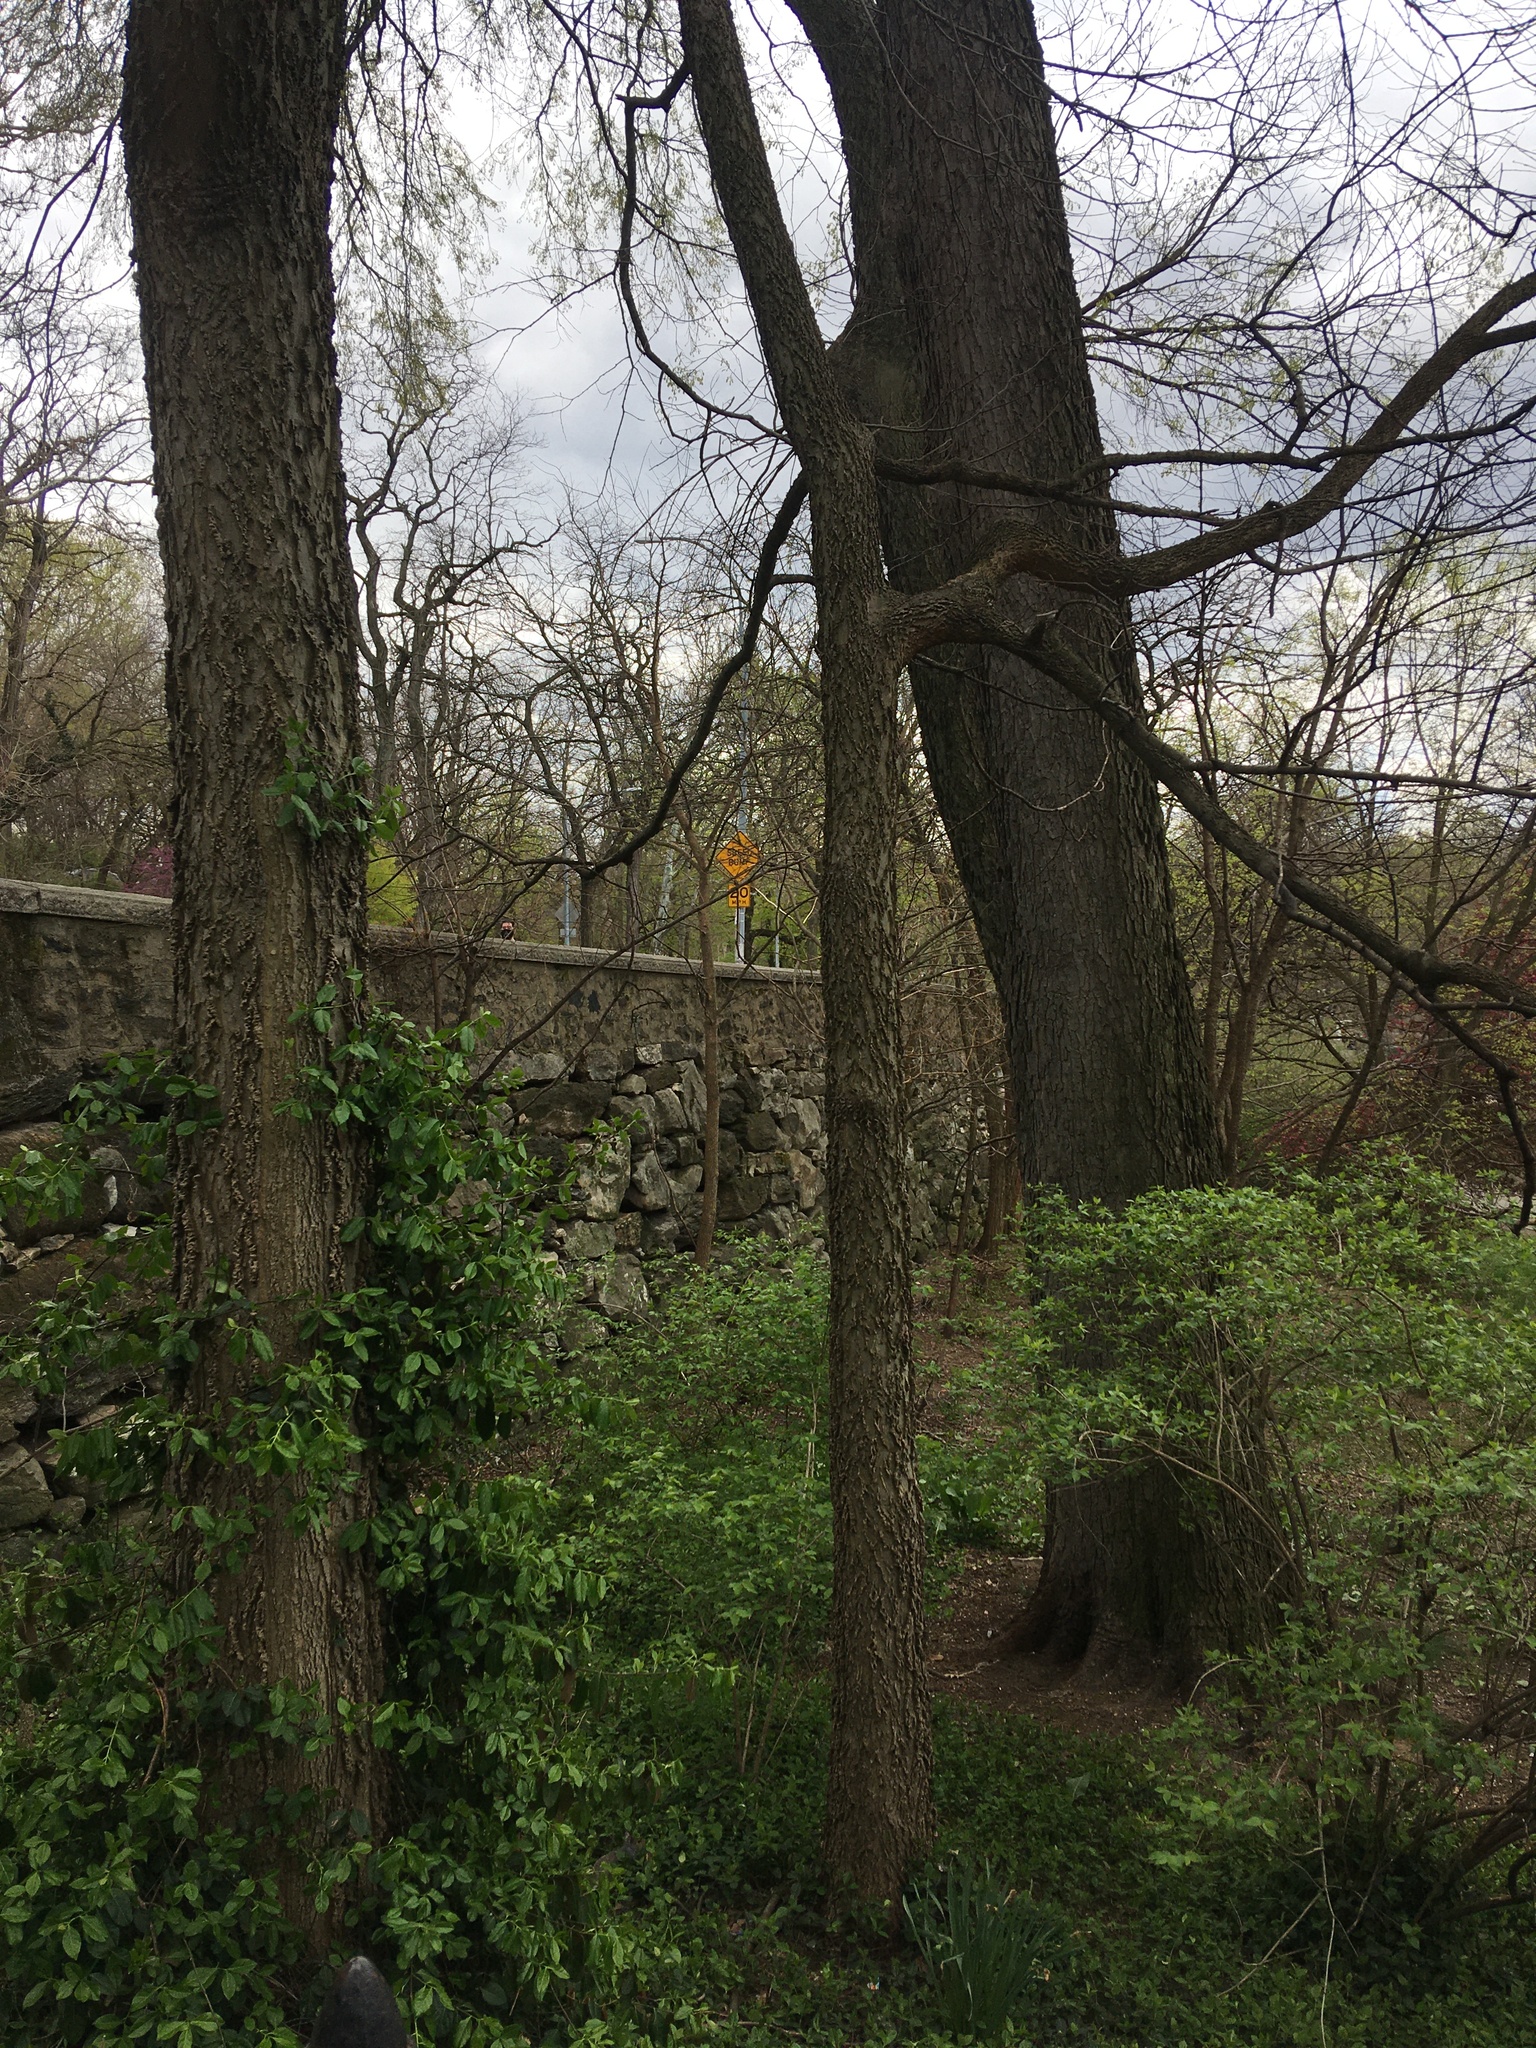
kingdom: Plantae
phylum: Tracheophyta
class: Magnoliopsida
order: Rosales
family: Cannabaceae
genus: Celtis
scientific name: Celtis occidentalis
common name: Common hackberry
